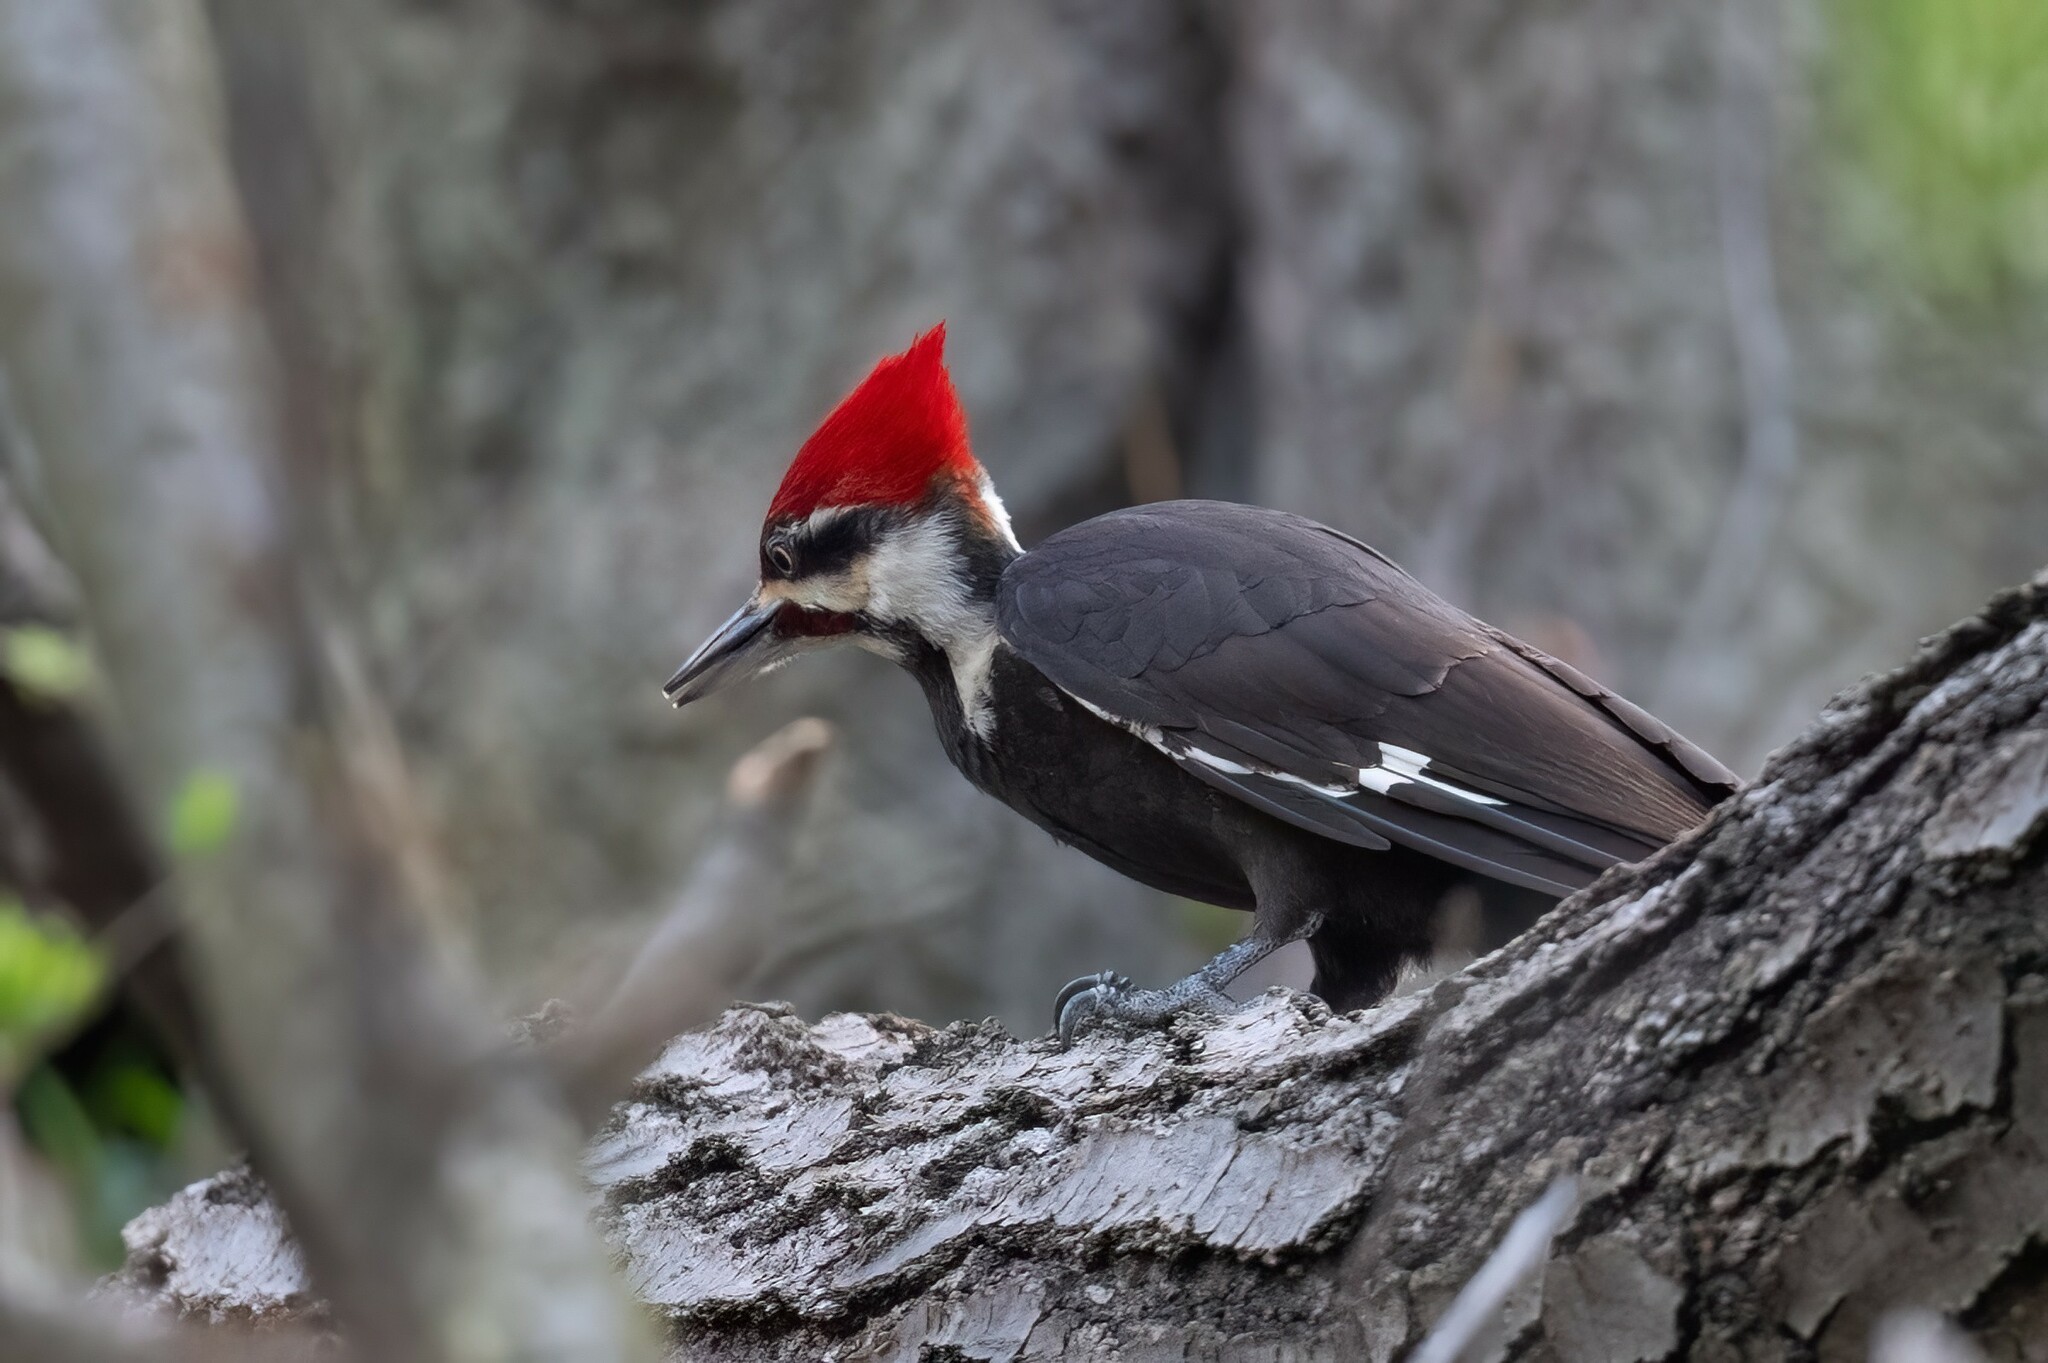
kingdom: Animalia
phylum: Chordata
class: Aves
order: Piciformes
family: Picidae
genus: Dryocopus
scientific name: Dryocopus pileatus
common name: Pileated woodpecker
